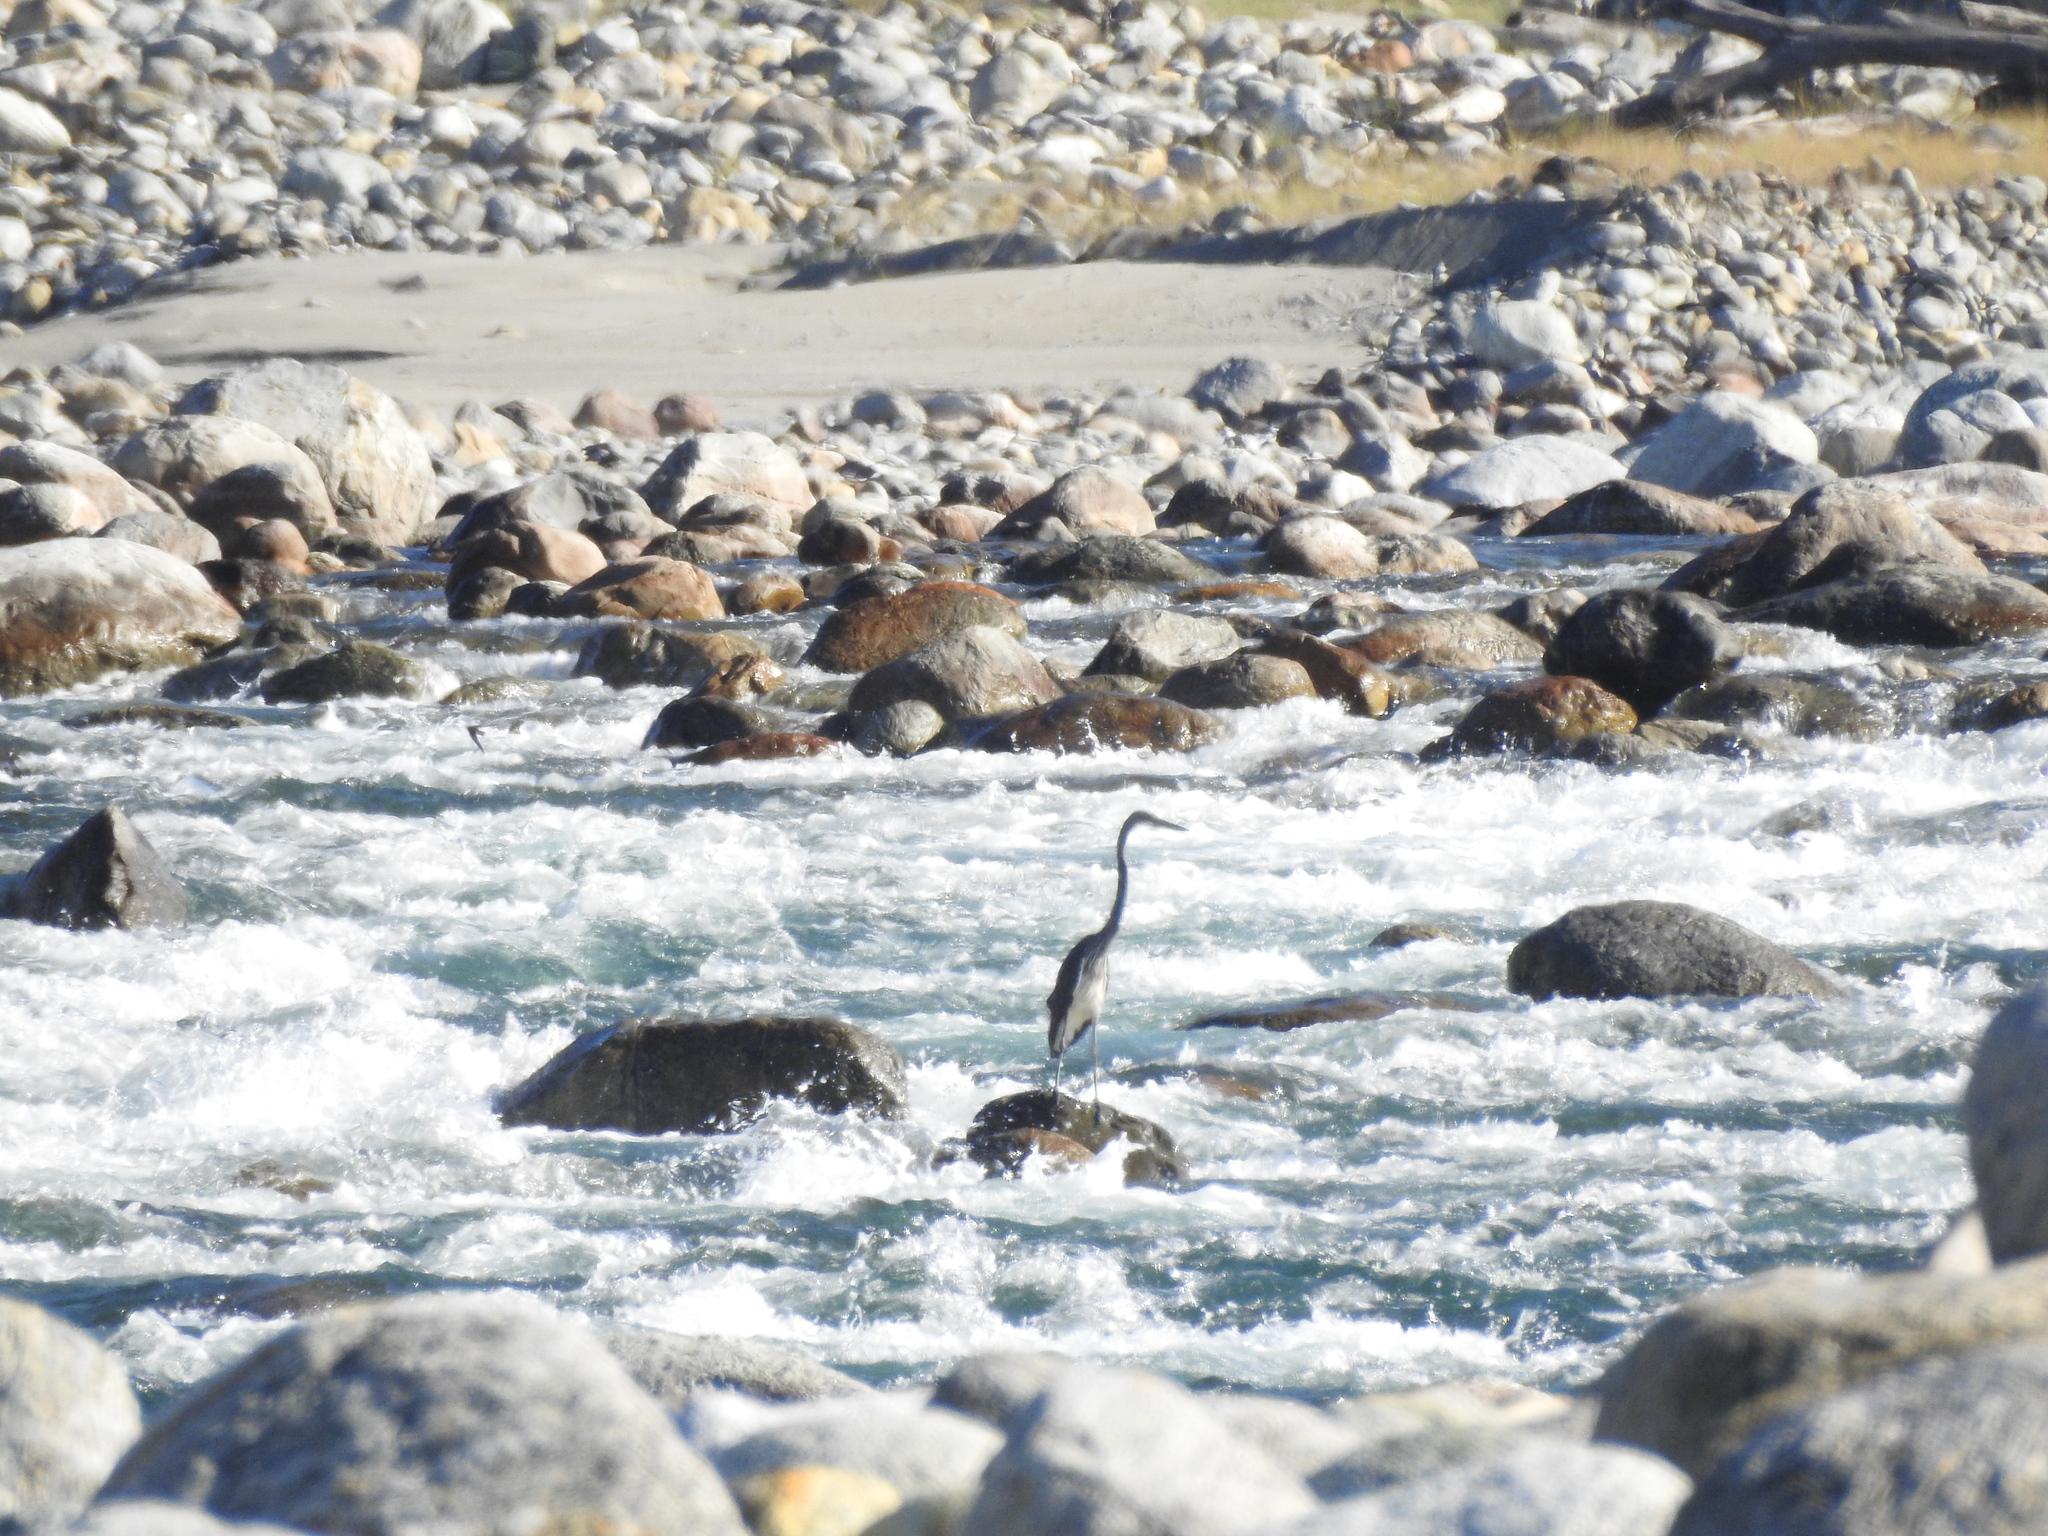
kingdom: Animalia
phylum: Chordata
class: Aves
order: Pelecaniformes
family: Ardeidae
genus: Ardea
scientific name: Ardea insignis
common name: White-bellied heron
